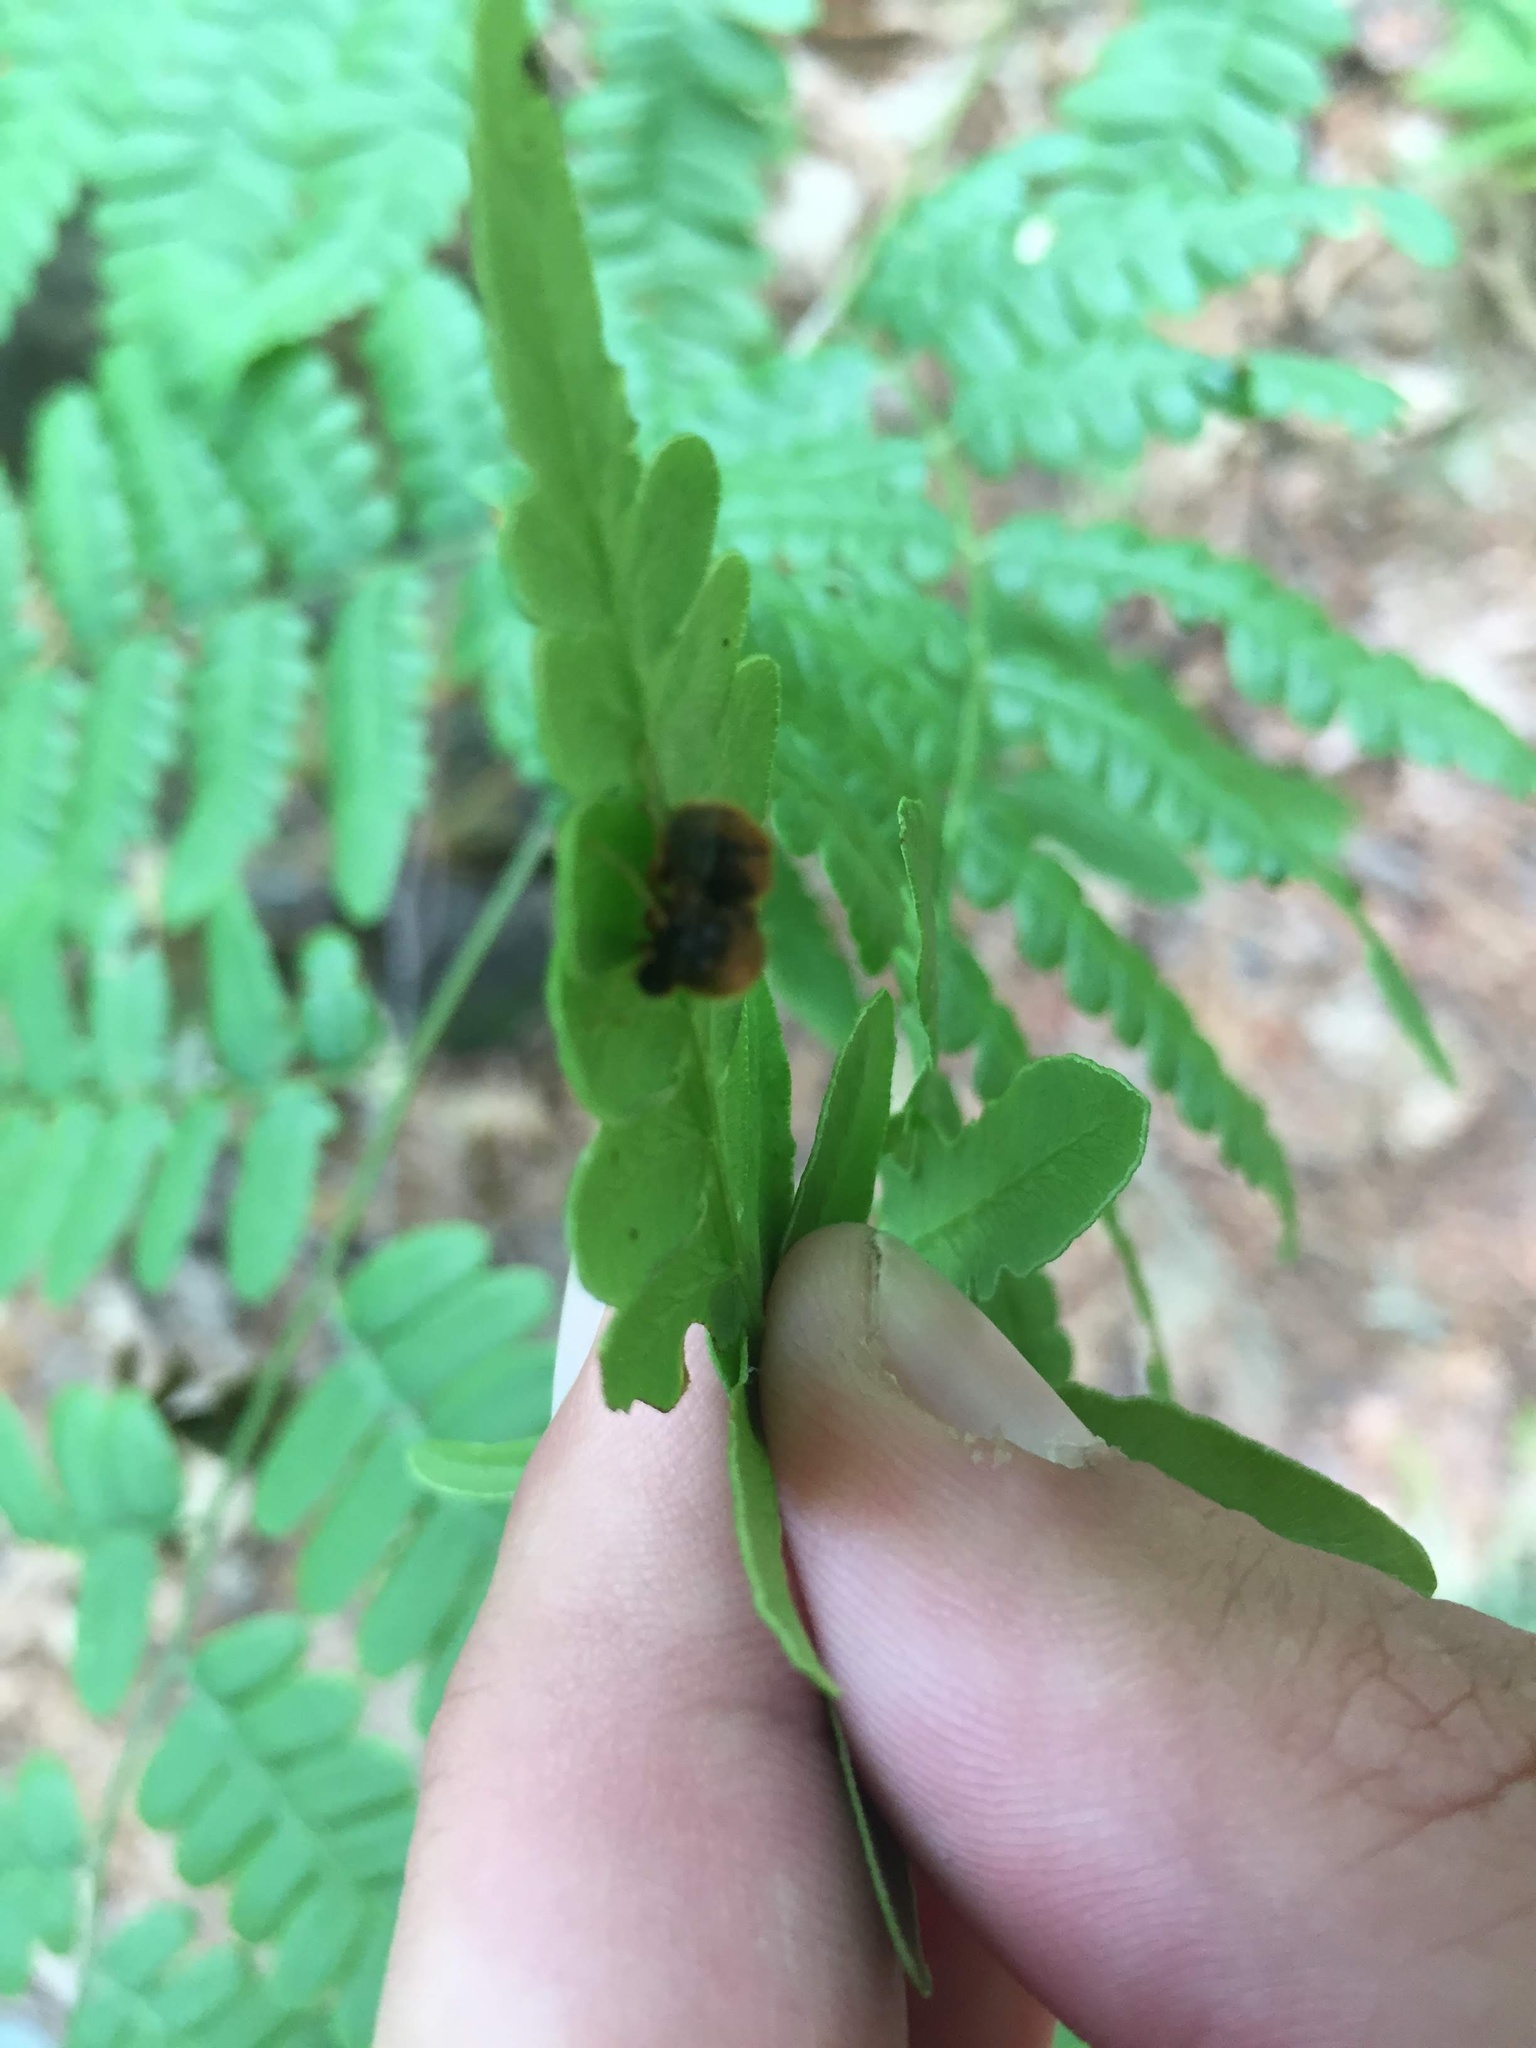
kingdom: Animalia
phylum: Arthropoda
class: Insecta
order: Diptera
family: Acroceridae
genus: Turbopsebius
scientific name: Turbopsebius sulphuripes
